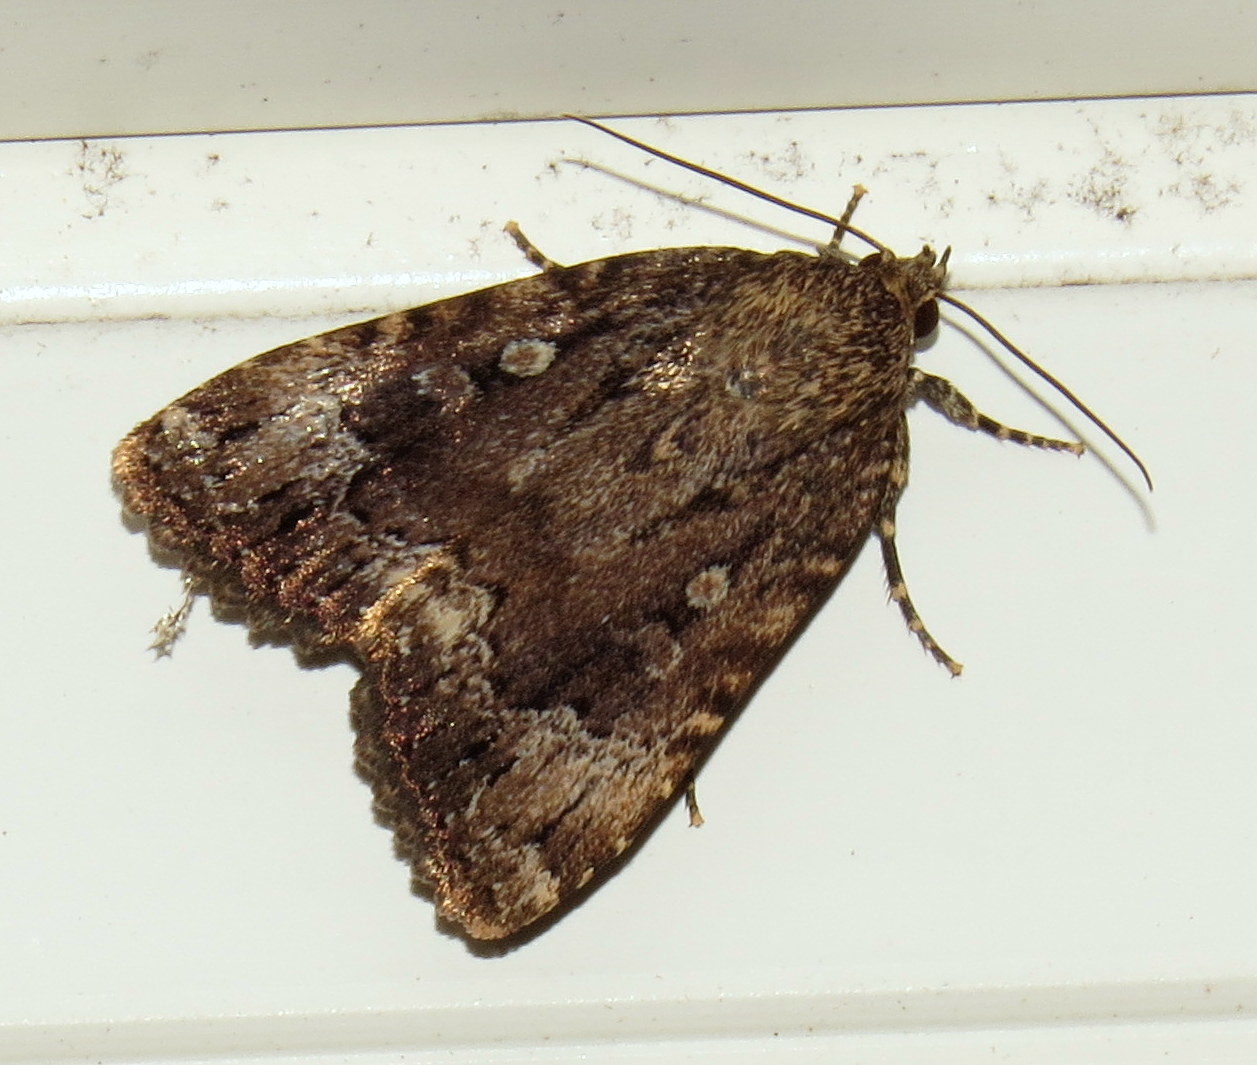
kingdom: Animalia
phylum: Arthropoda
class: Insecta
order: Lepidoptera
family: Noctuidae
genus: Amphipyra
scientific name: Amphipyra pyramidoides
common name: American copper underwing
